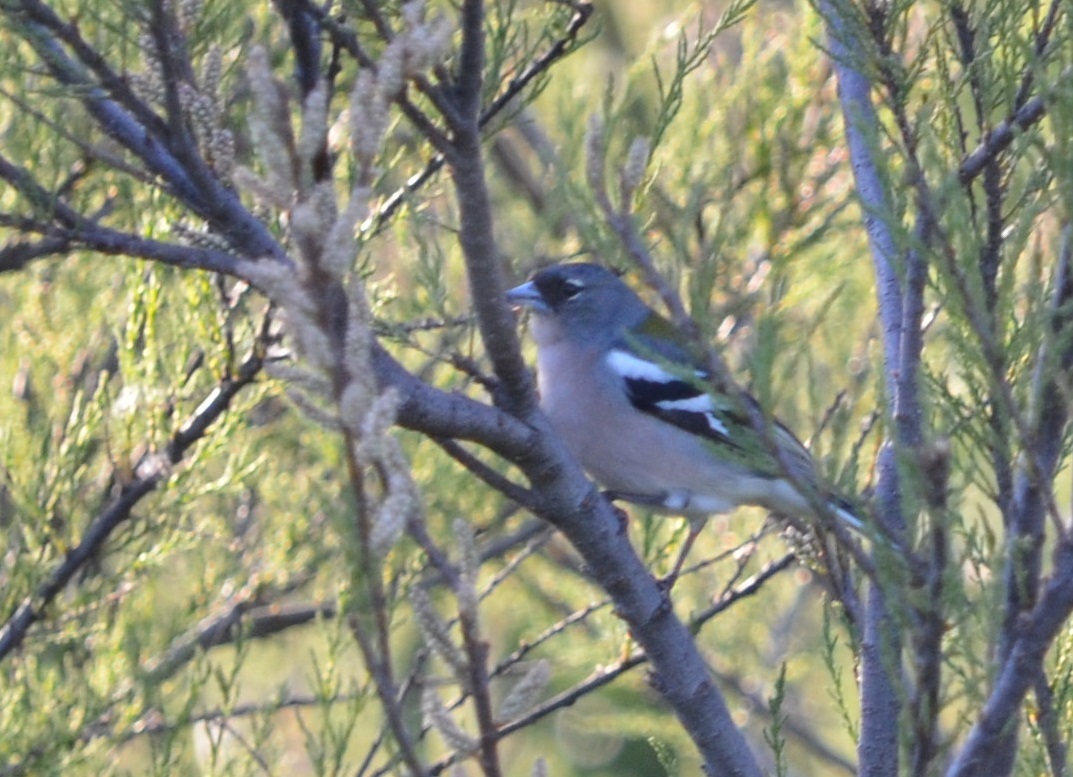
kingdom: Animalia
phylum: Chordata
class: Aves
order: Passeriformes
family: Fringillidae
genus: Fringilla
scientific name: Fringilla spodiogenys
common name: African chaffinch
